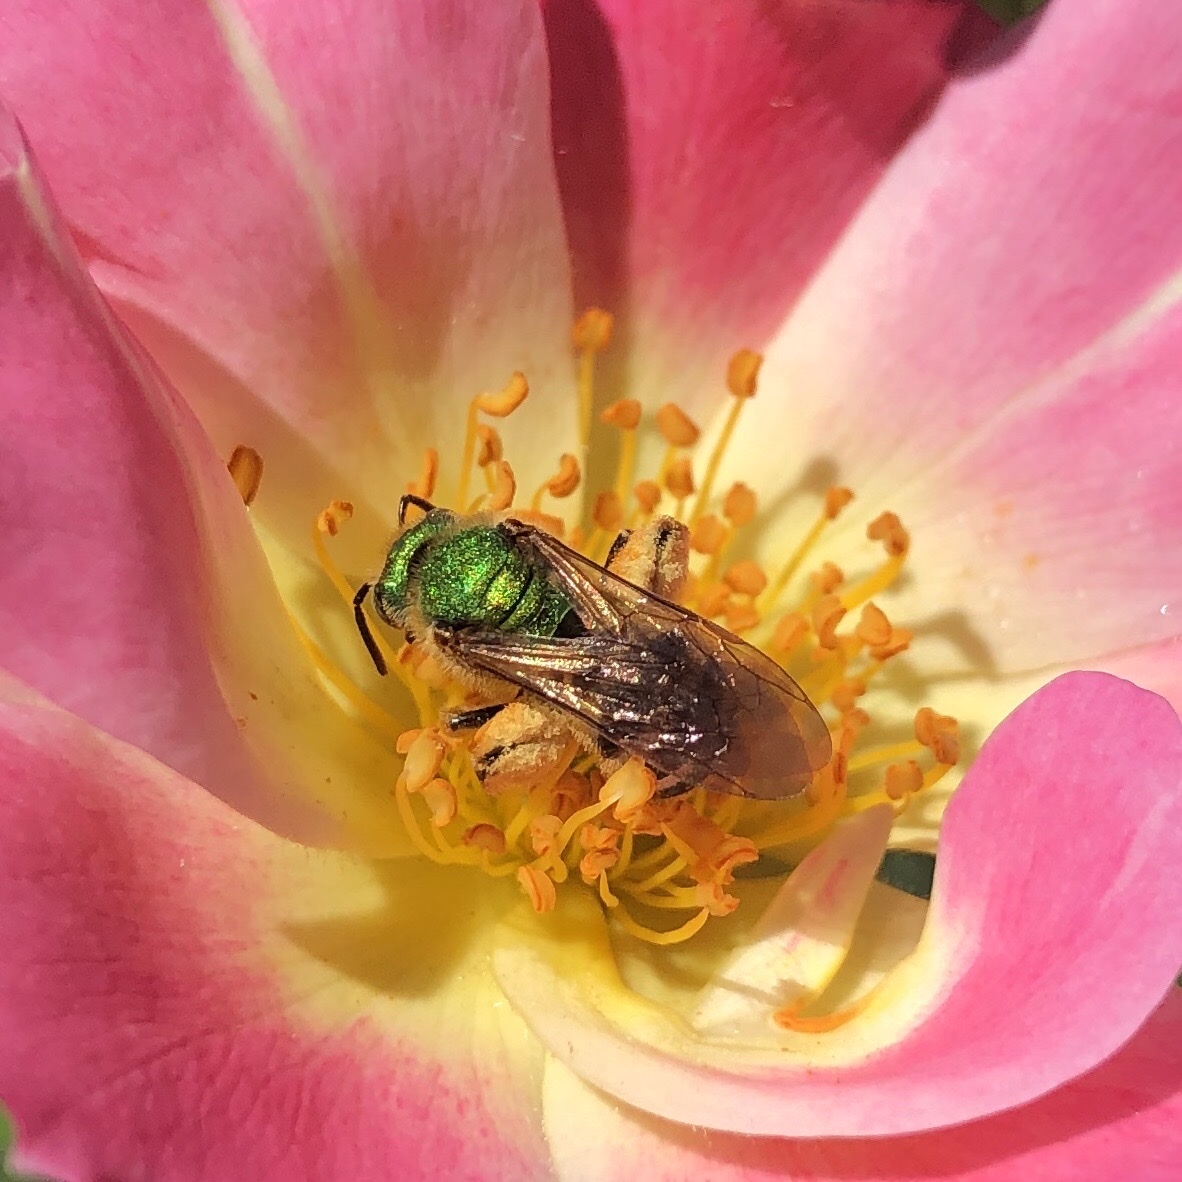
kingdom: Animalia
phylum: Arthropoda
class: Insecta
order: Hymenoptera
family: Halictidae
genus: Agapostemon
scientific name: Agapostemon virescens
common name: Bicolored striped sweat bee
